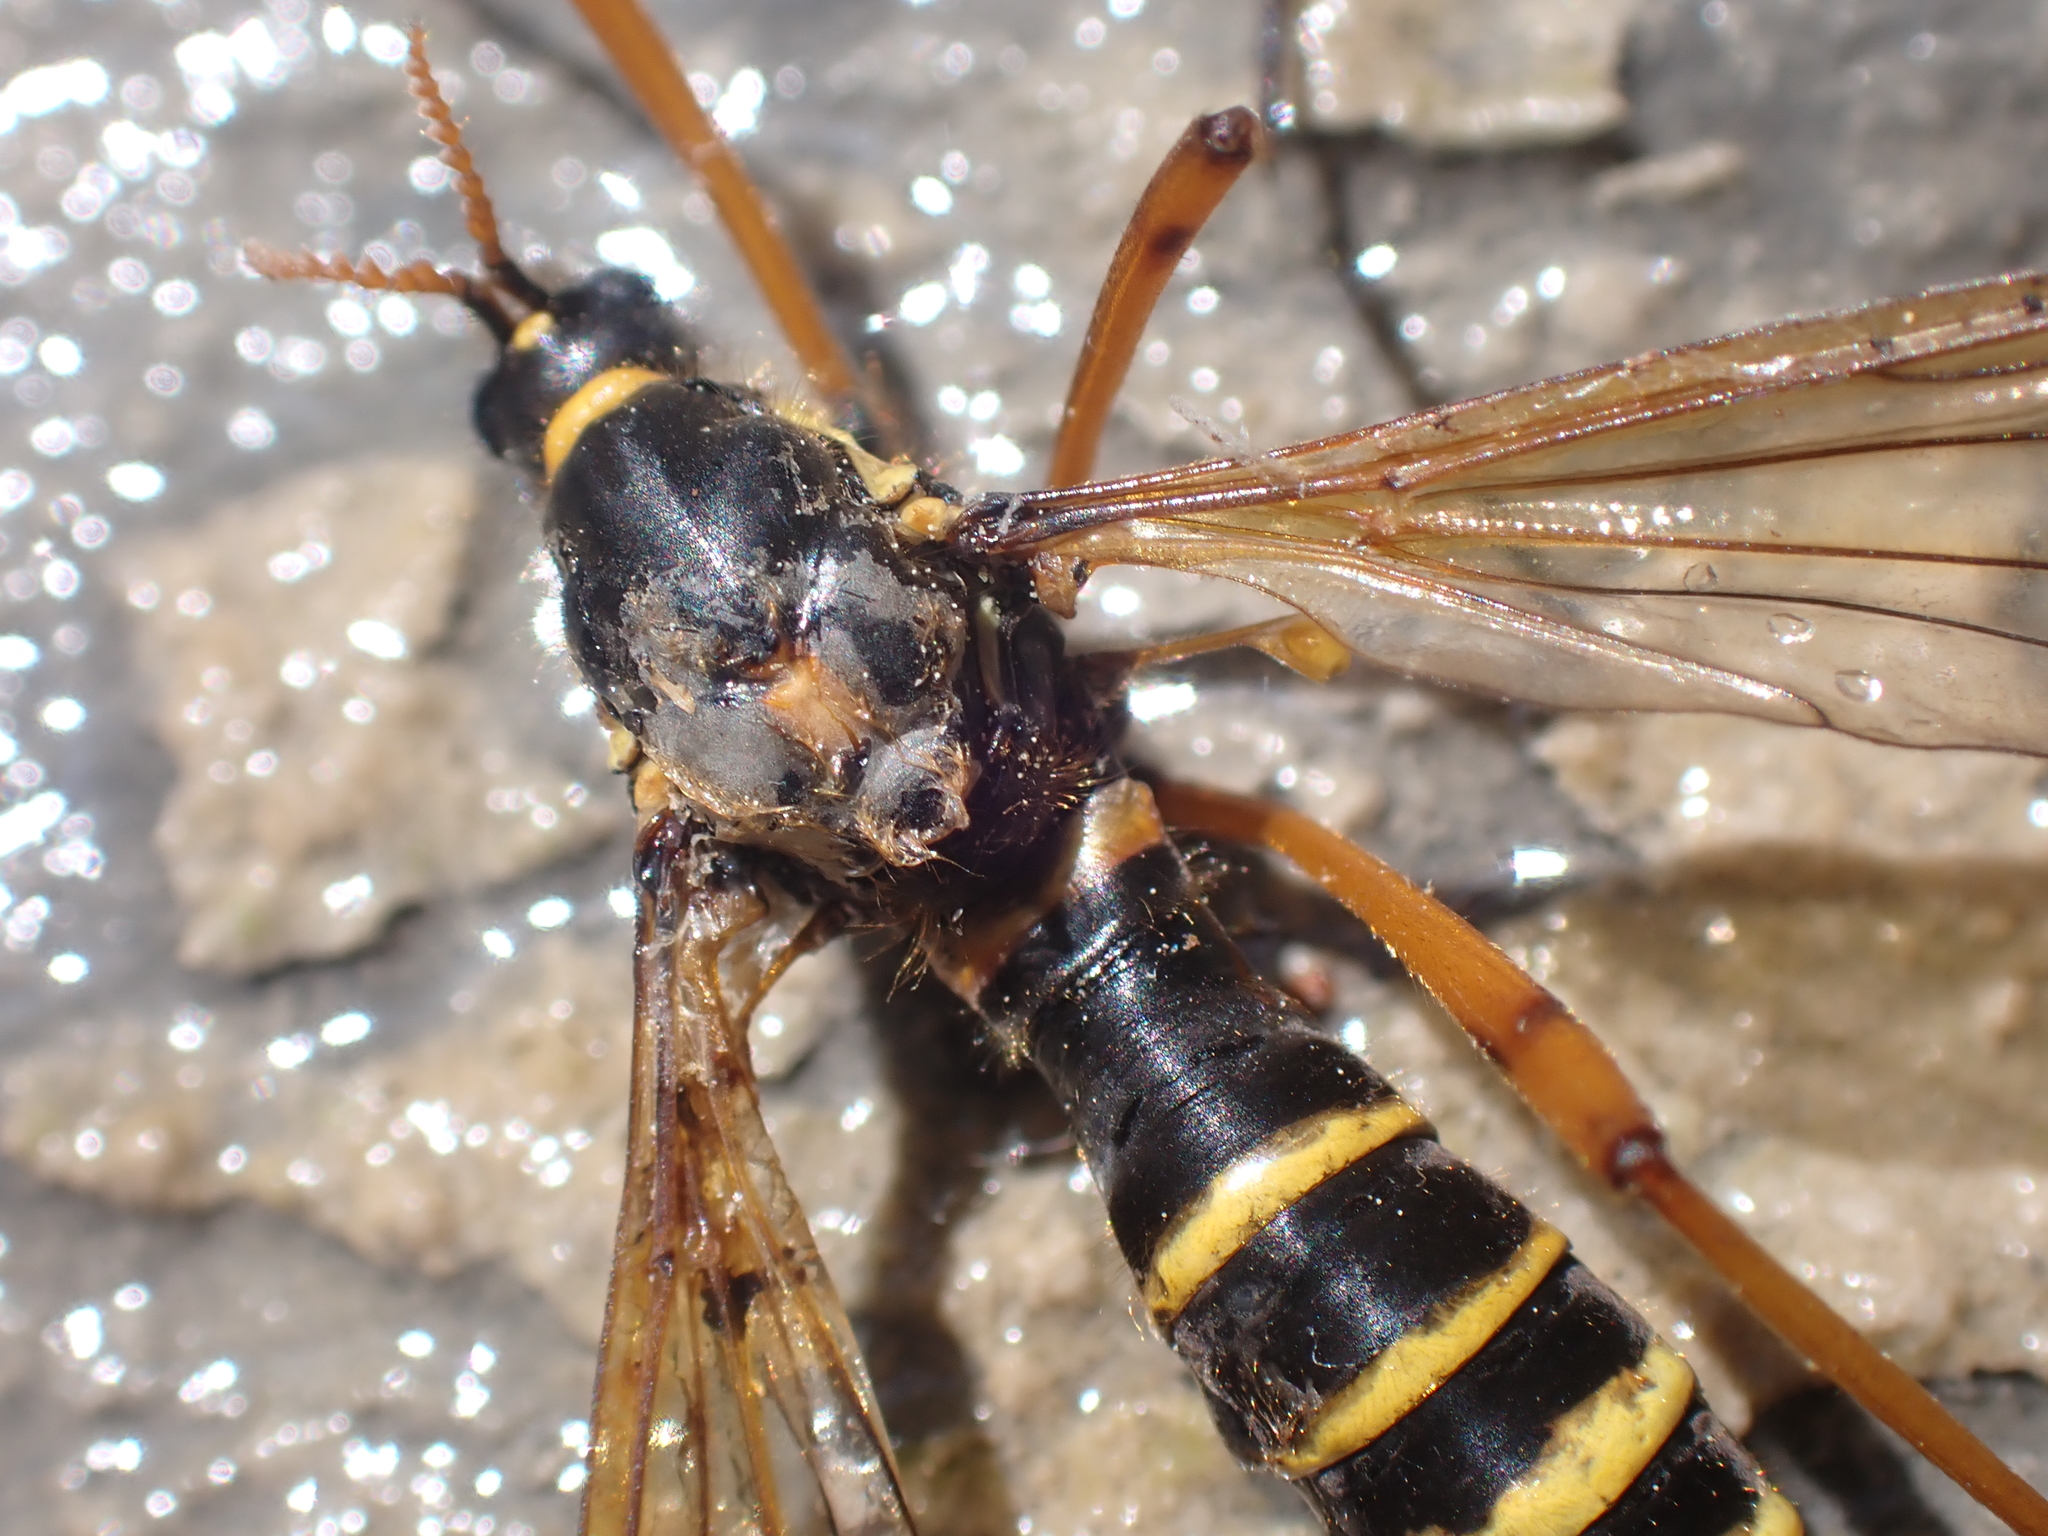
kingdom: Animalia
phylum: Arthropoda
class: Insecta
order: Diptera
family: Tipulidae
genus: Ctenophora
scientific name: Ctenophora flaveolata
